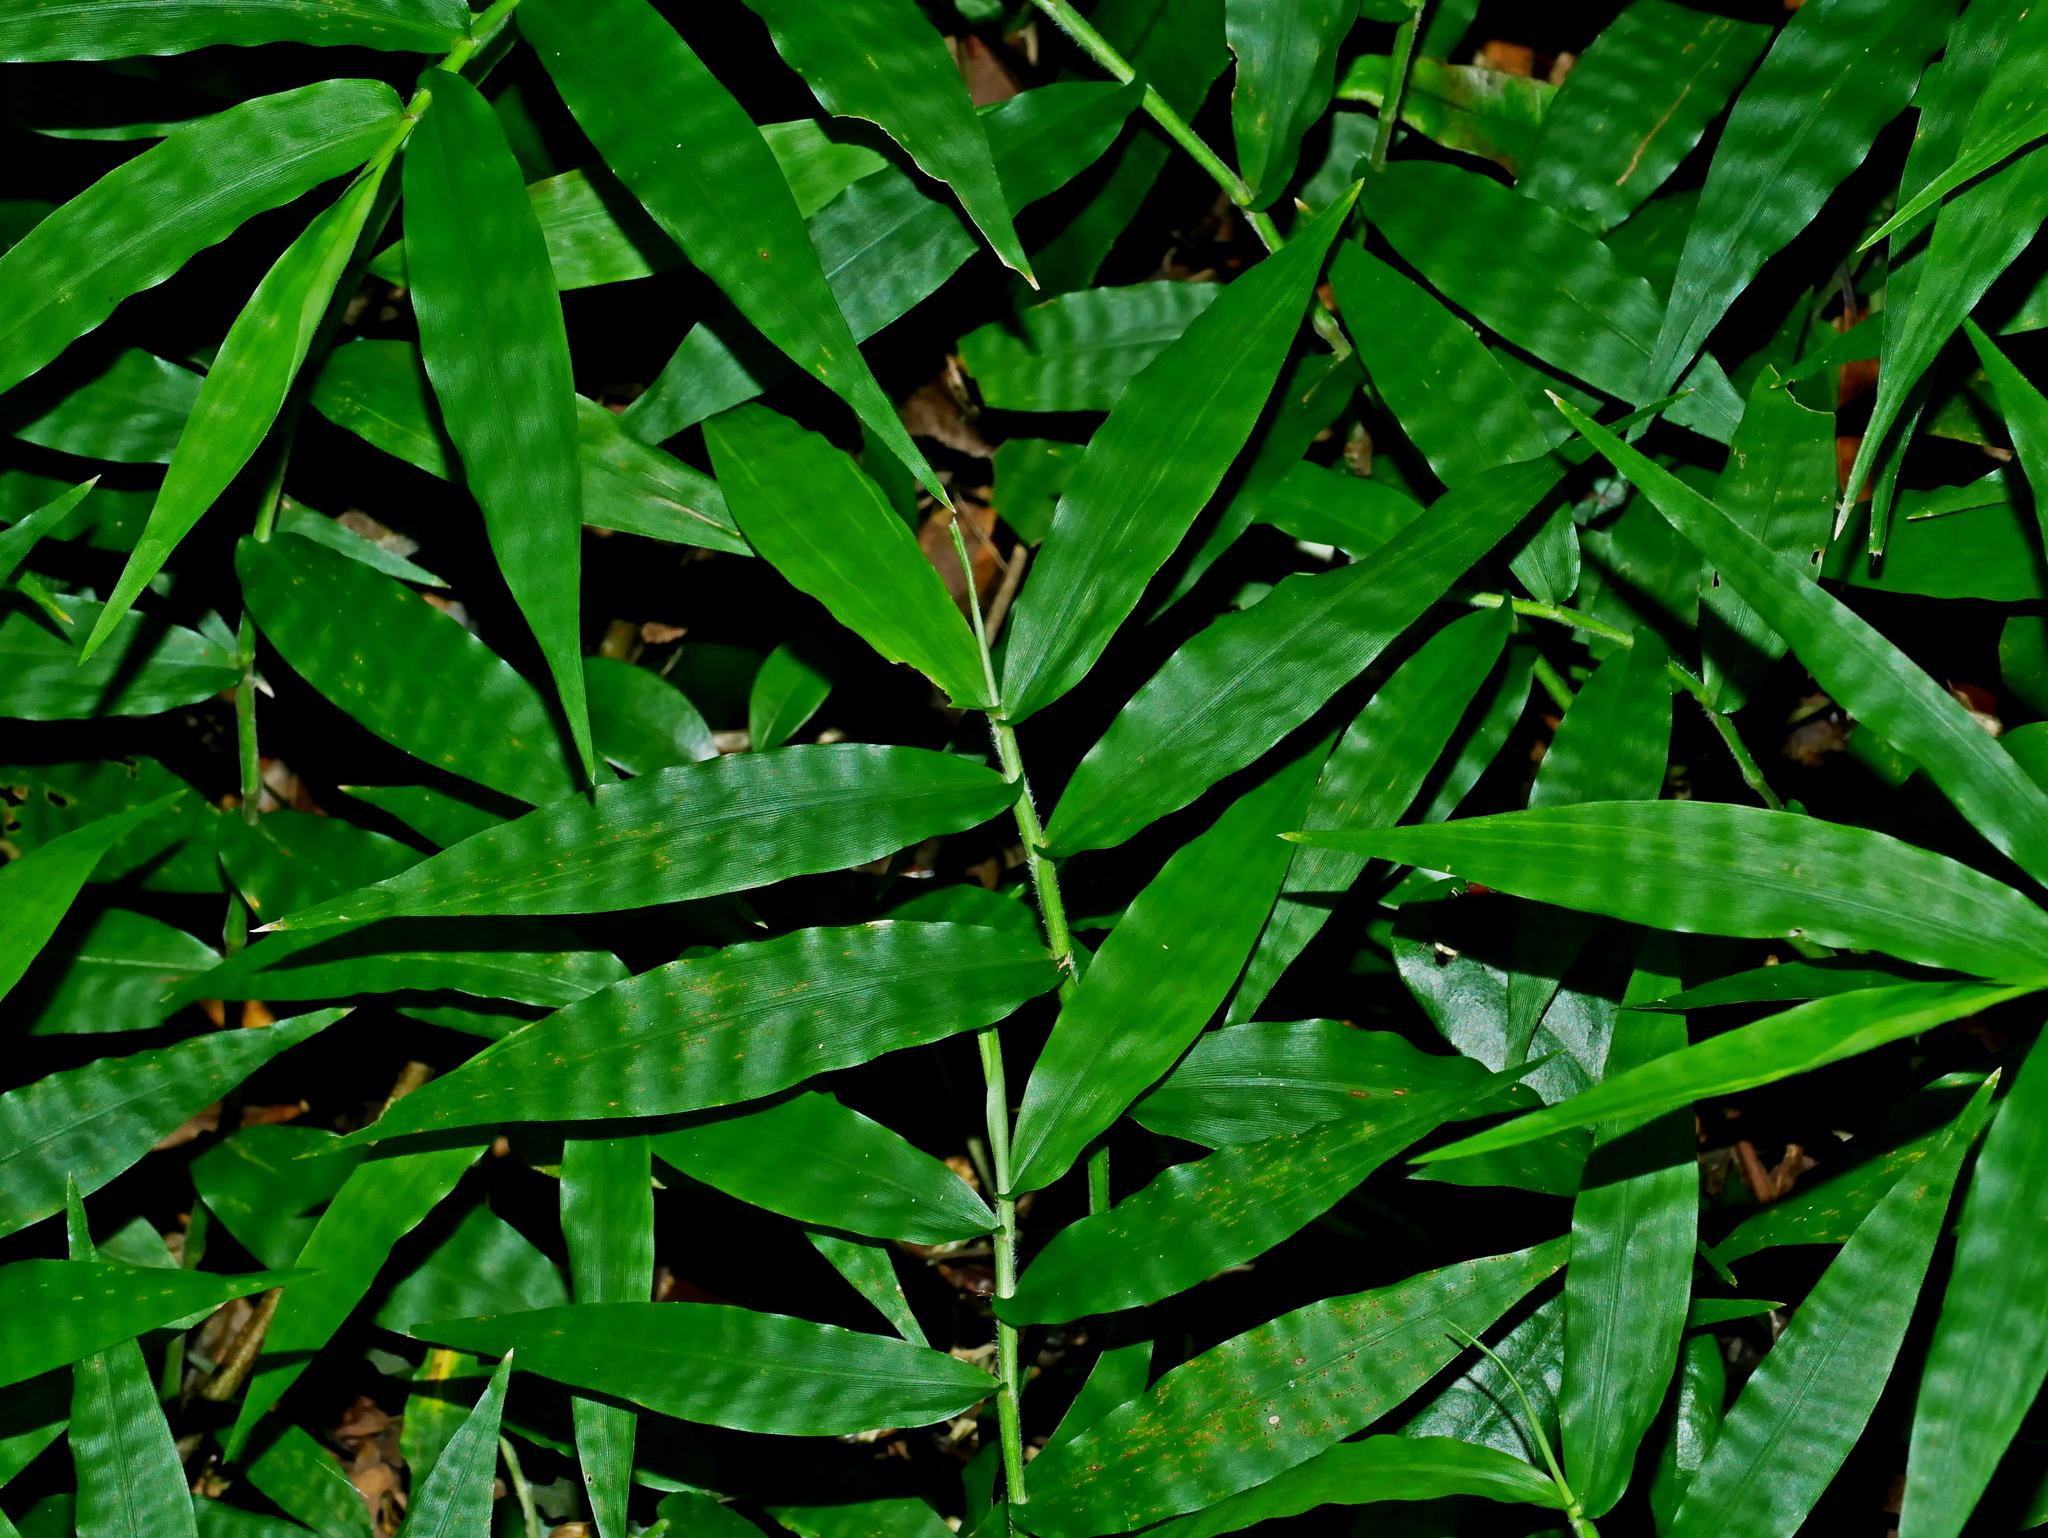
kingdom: Plantae
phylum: Tracheophyta
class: Liliopsida
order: Poales
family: Poaceae
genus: Oplismenus
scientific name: Oplismenus compositus
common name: Running mountain grass
